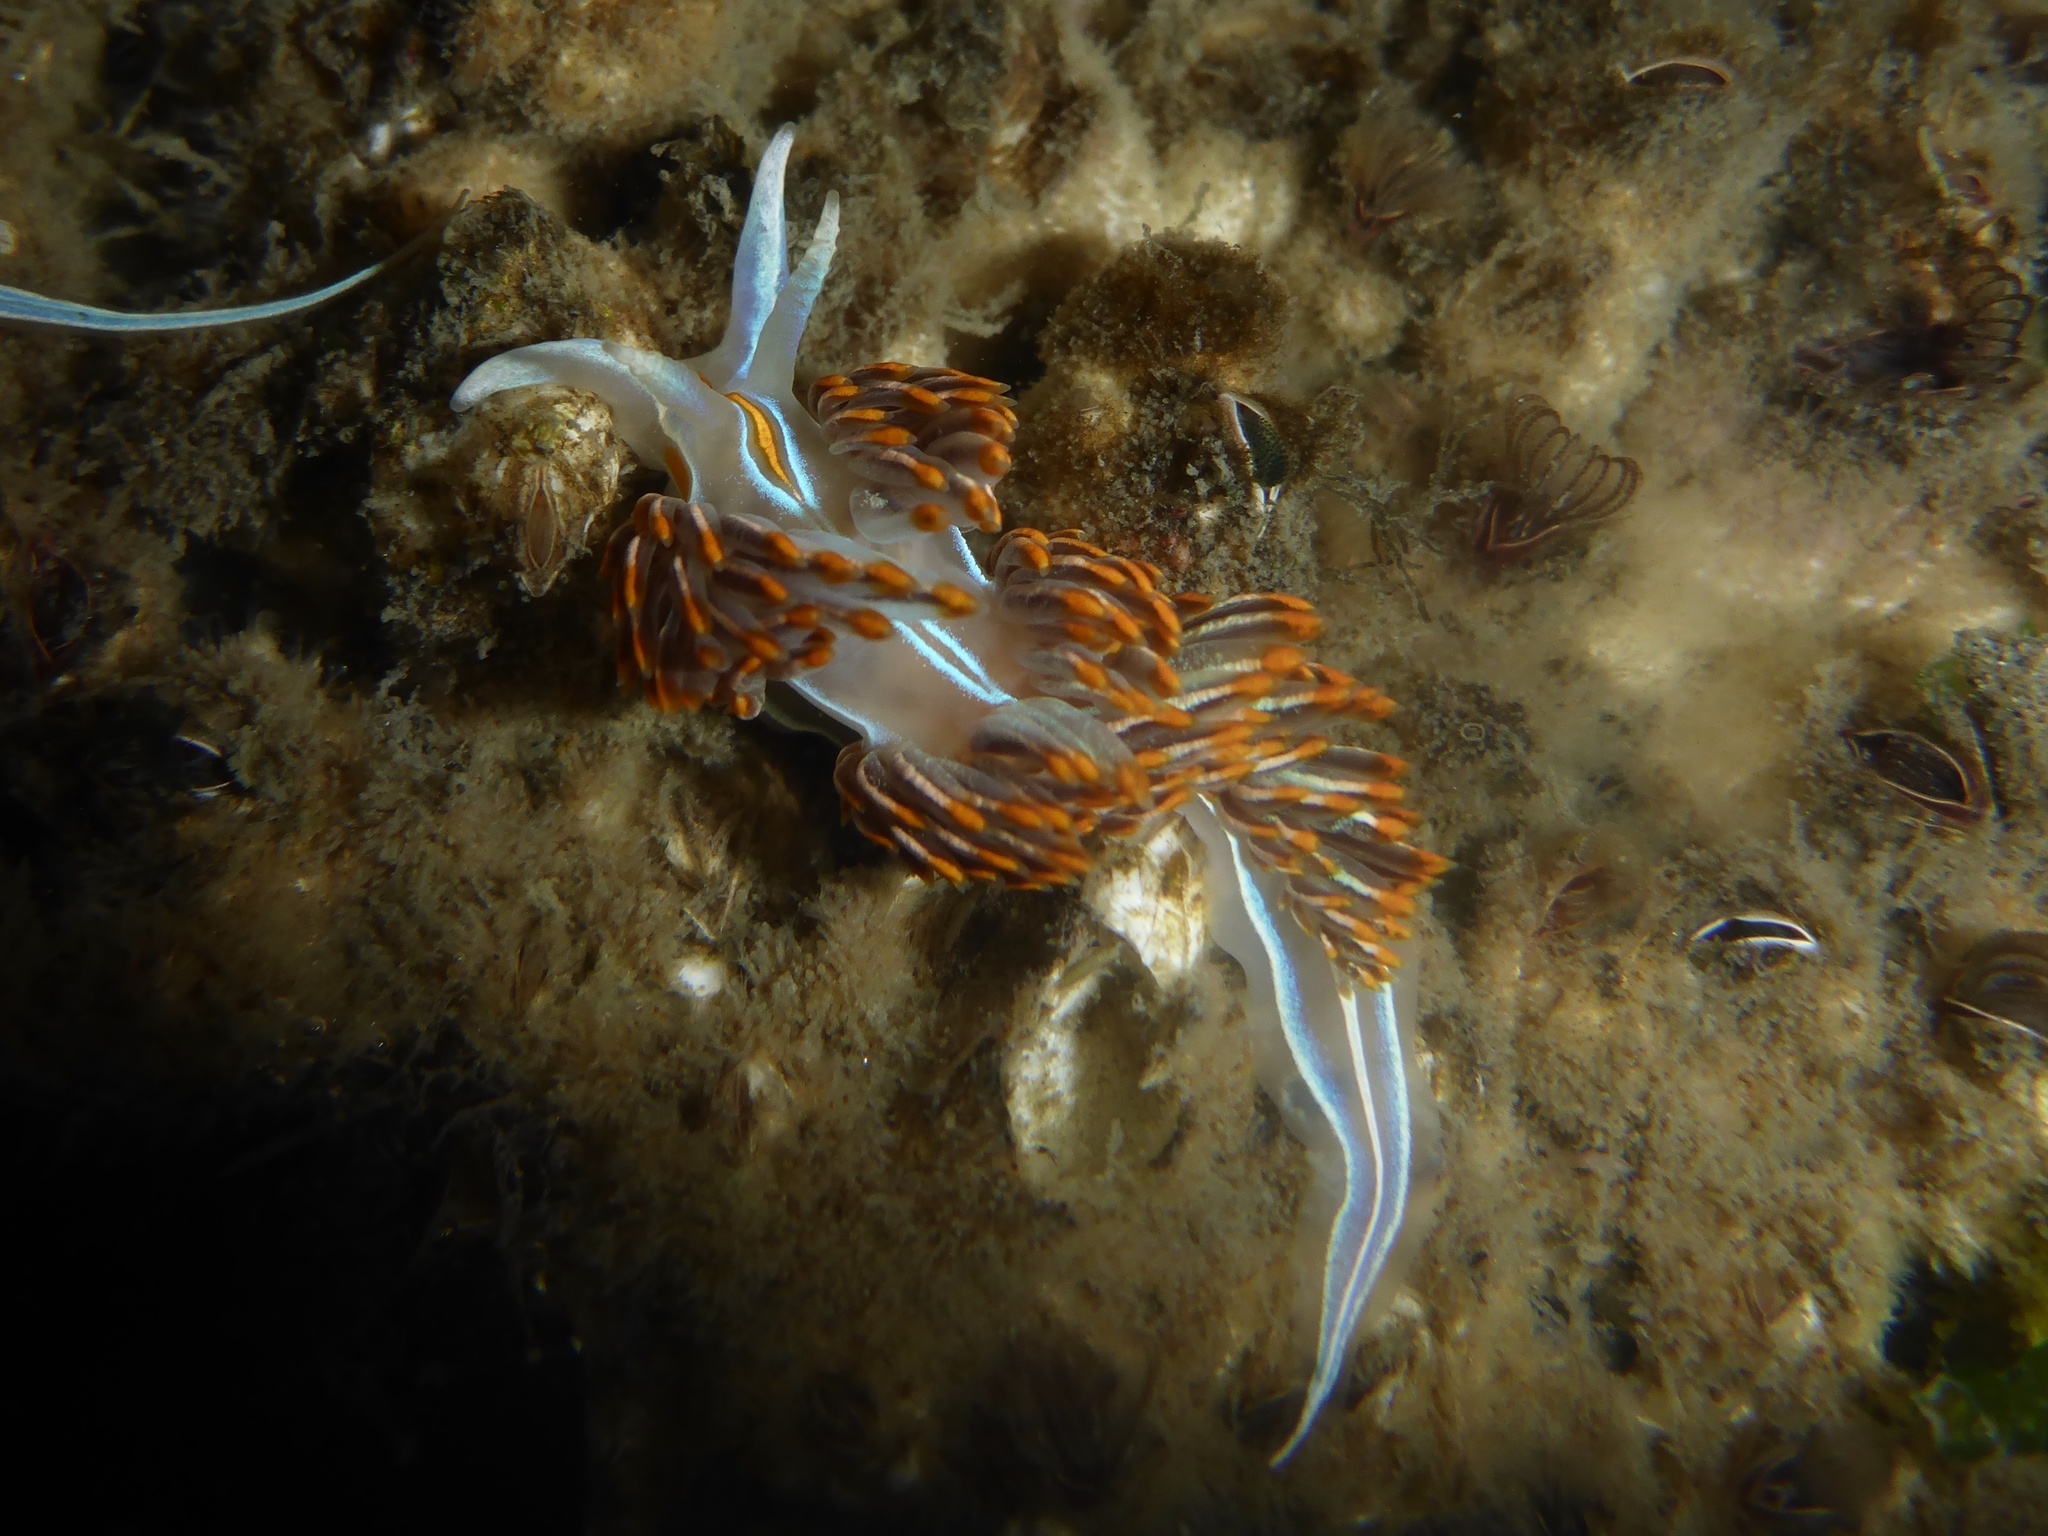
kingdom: Animalia
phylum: Mollusca
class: Gastropoda
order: Nudibranchia
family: Myrrhinidae
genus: Hermissenda
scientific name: Hermissenda crassicornis
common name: Hermissenda
